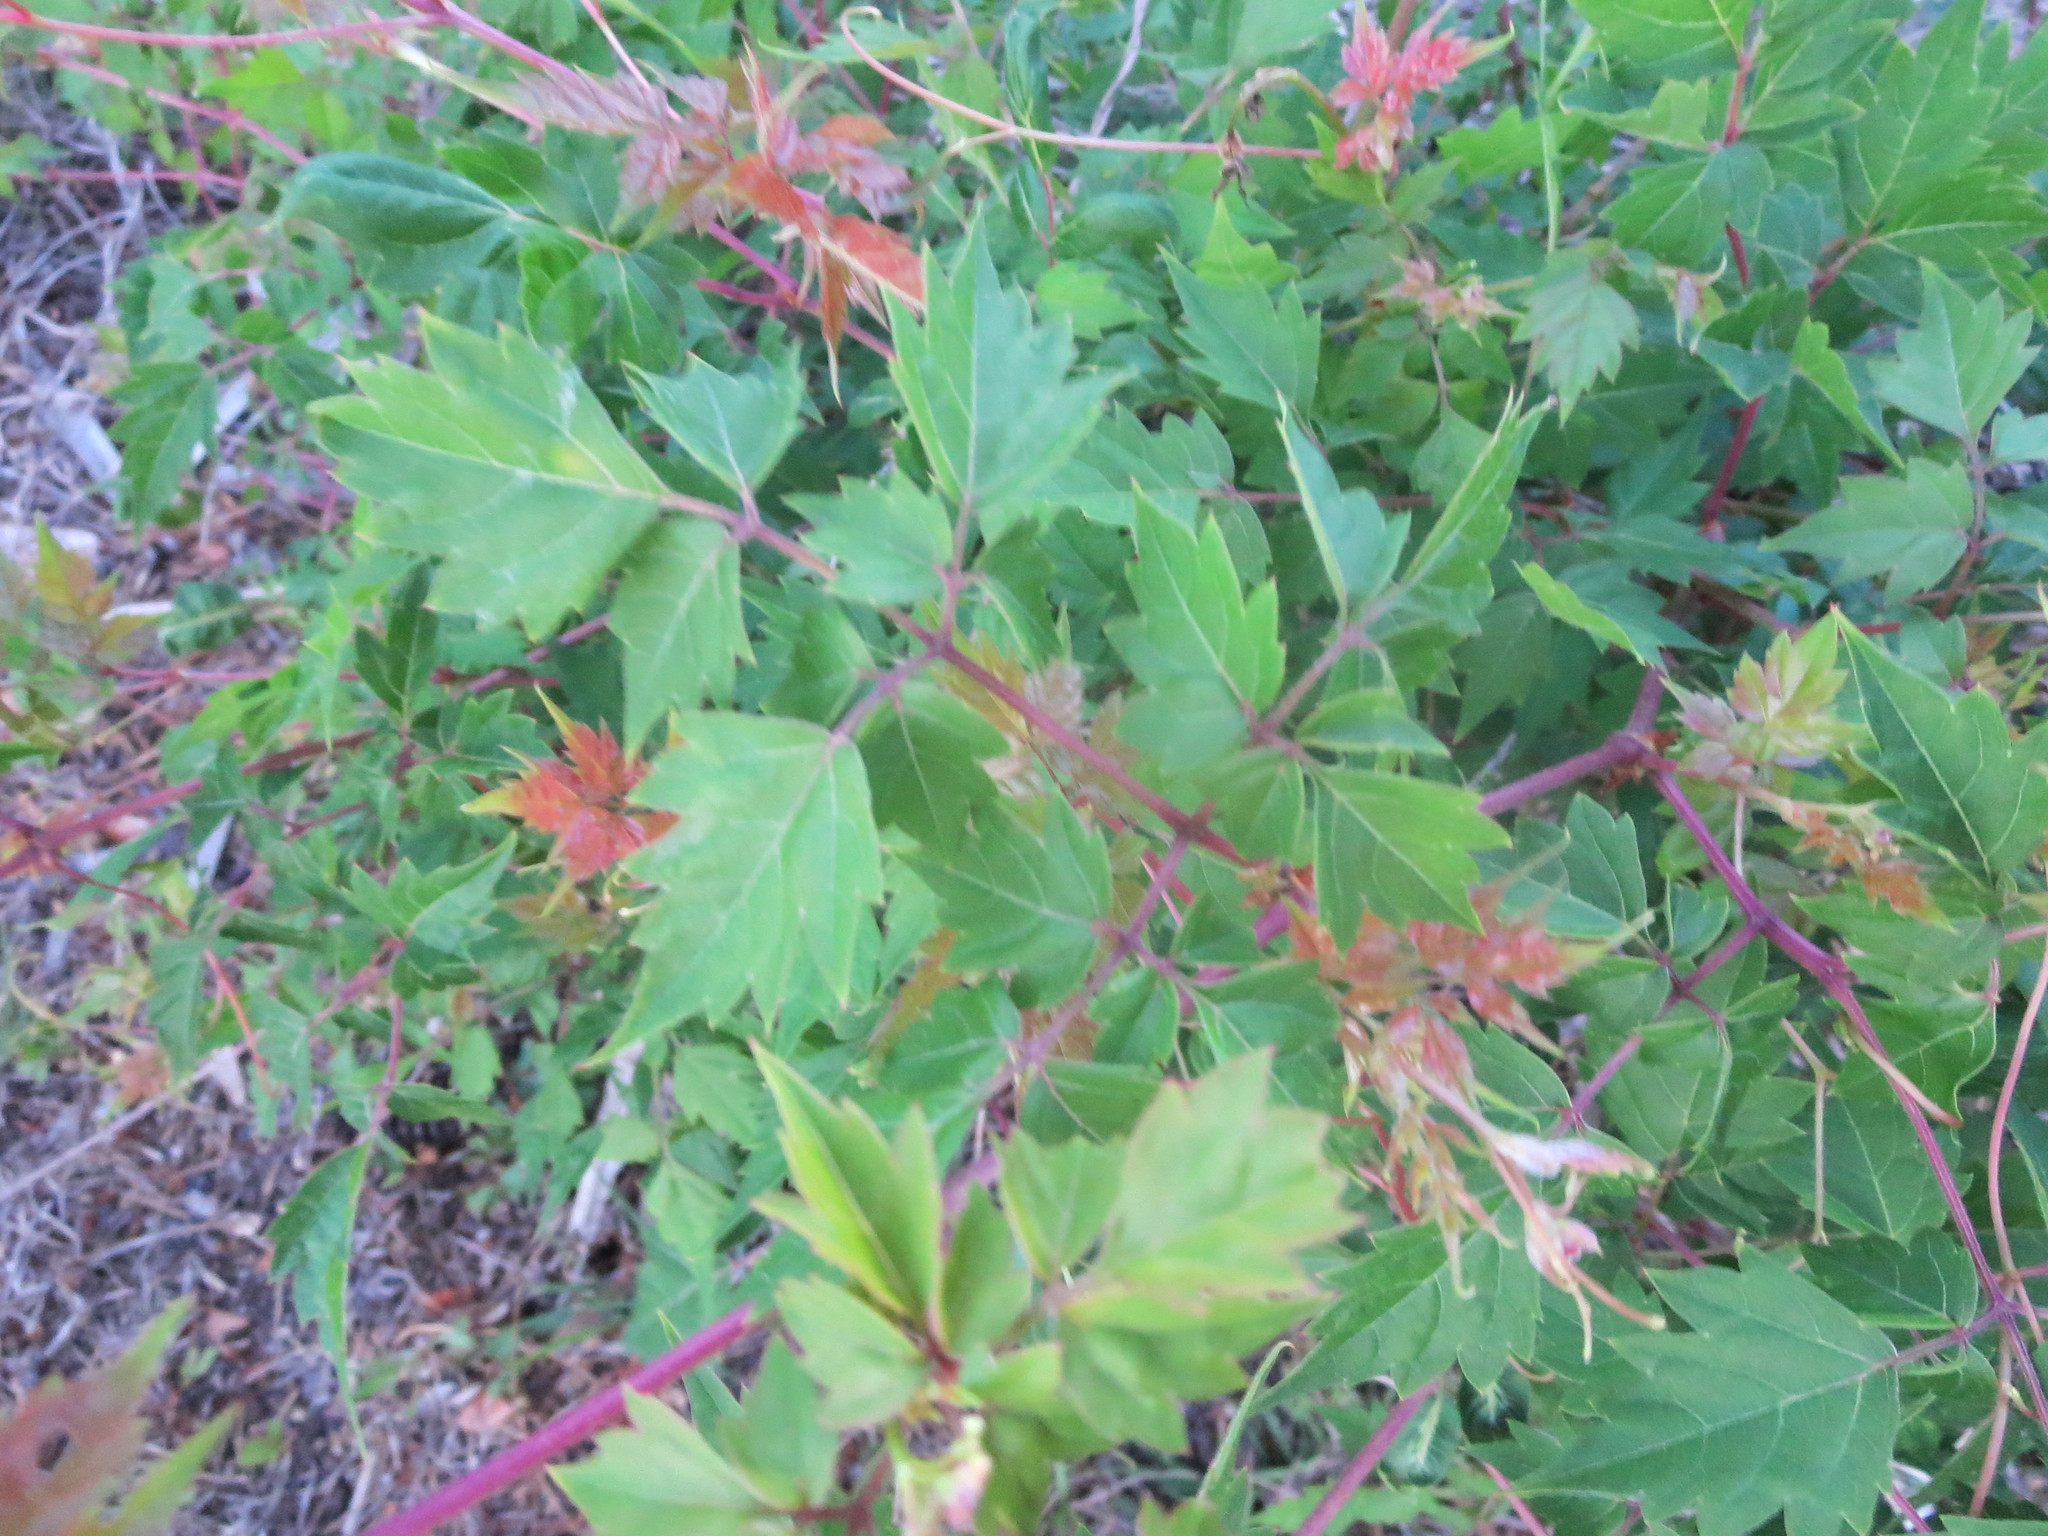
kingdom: Plantae
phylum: Tracheophyta
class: Magnoliopsida
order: Vitales
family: Vitaceae
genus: Nekemias
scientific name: Nekemias arborea
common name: Peppervine
